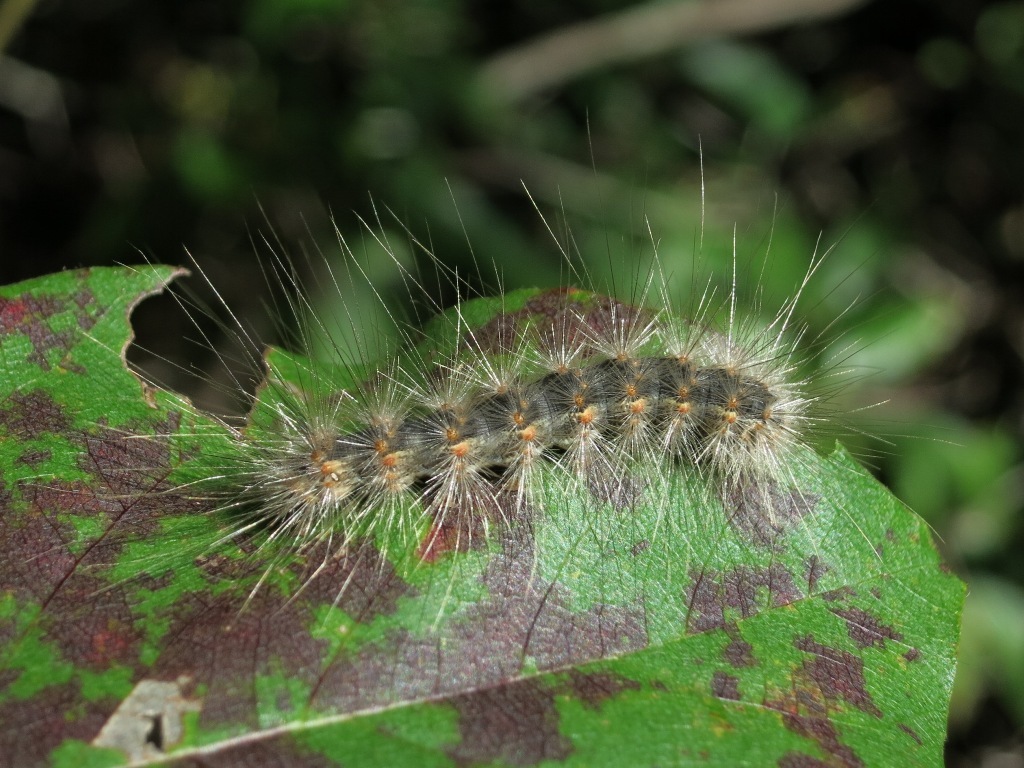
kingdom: Animalia
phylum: Arthropoda
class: Insecta
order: Lepidoptera
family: Erebidae
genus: Hyphantria
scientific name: Hyphantria cunea
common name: American white moth
